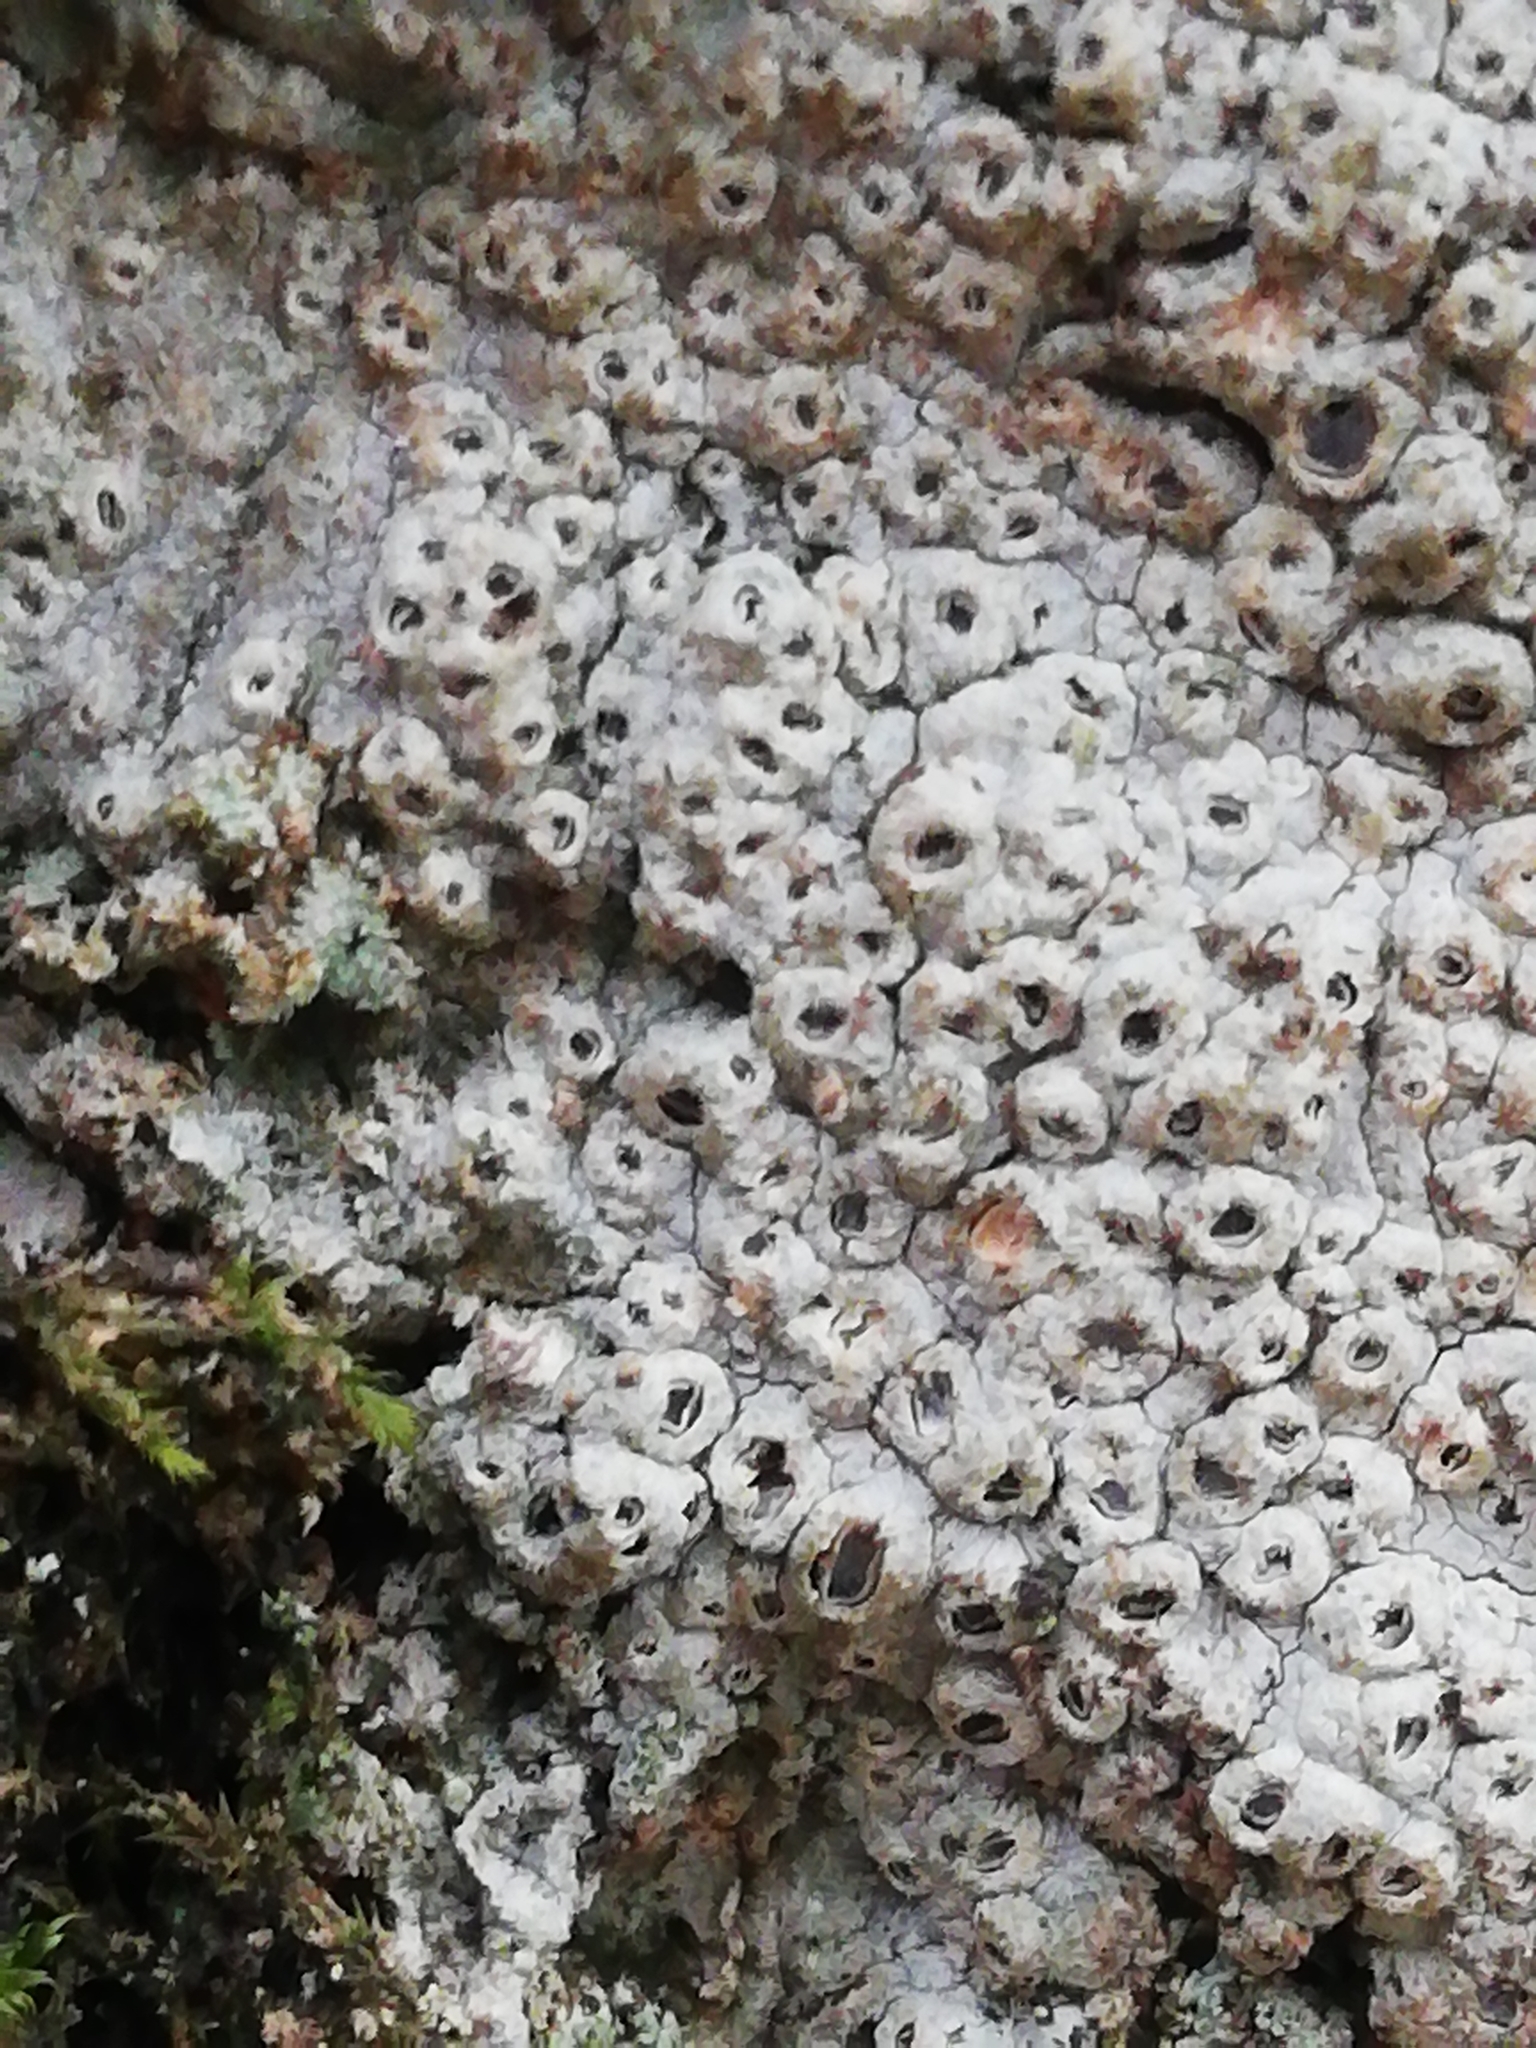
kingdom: Fungi
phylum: Ascomycota
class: Lecanoromycetes
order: Ostropales
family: Graphidaceae
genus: Thelotrema
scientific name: Thelotrema lepadinum
